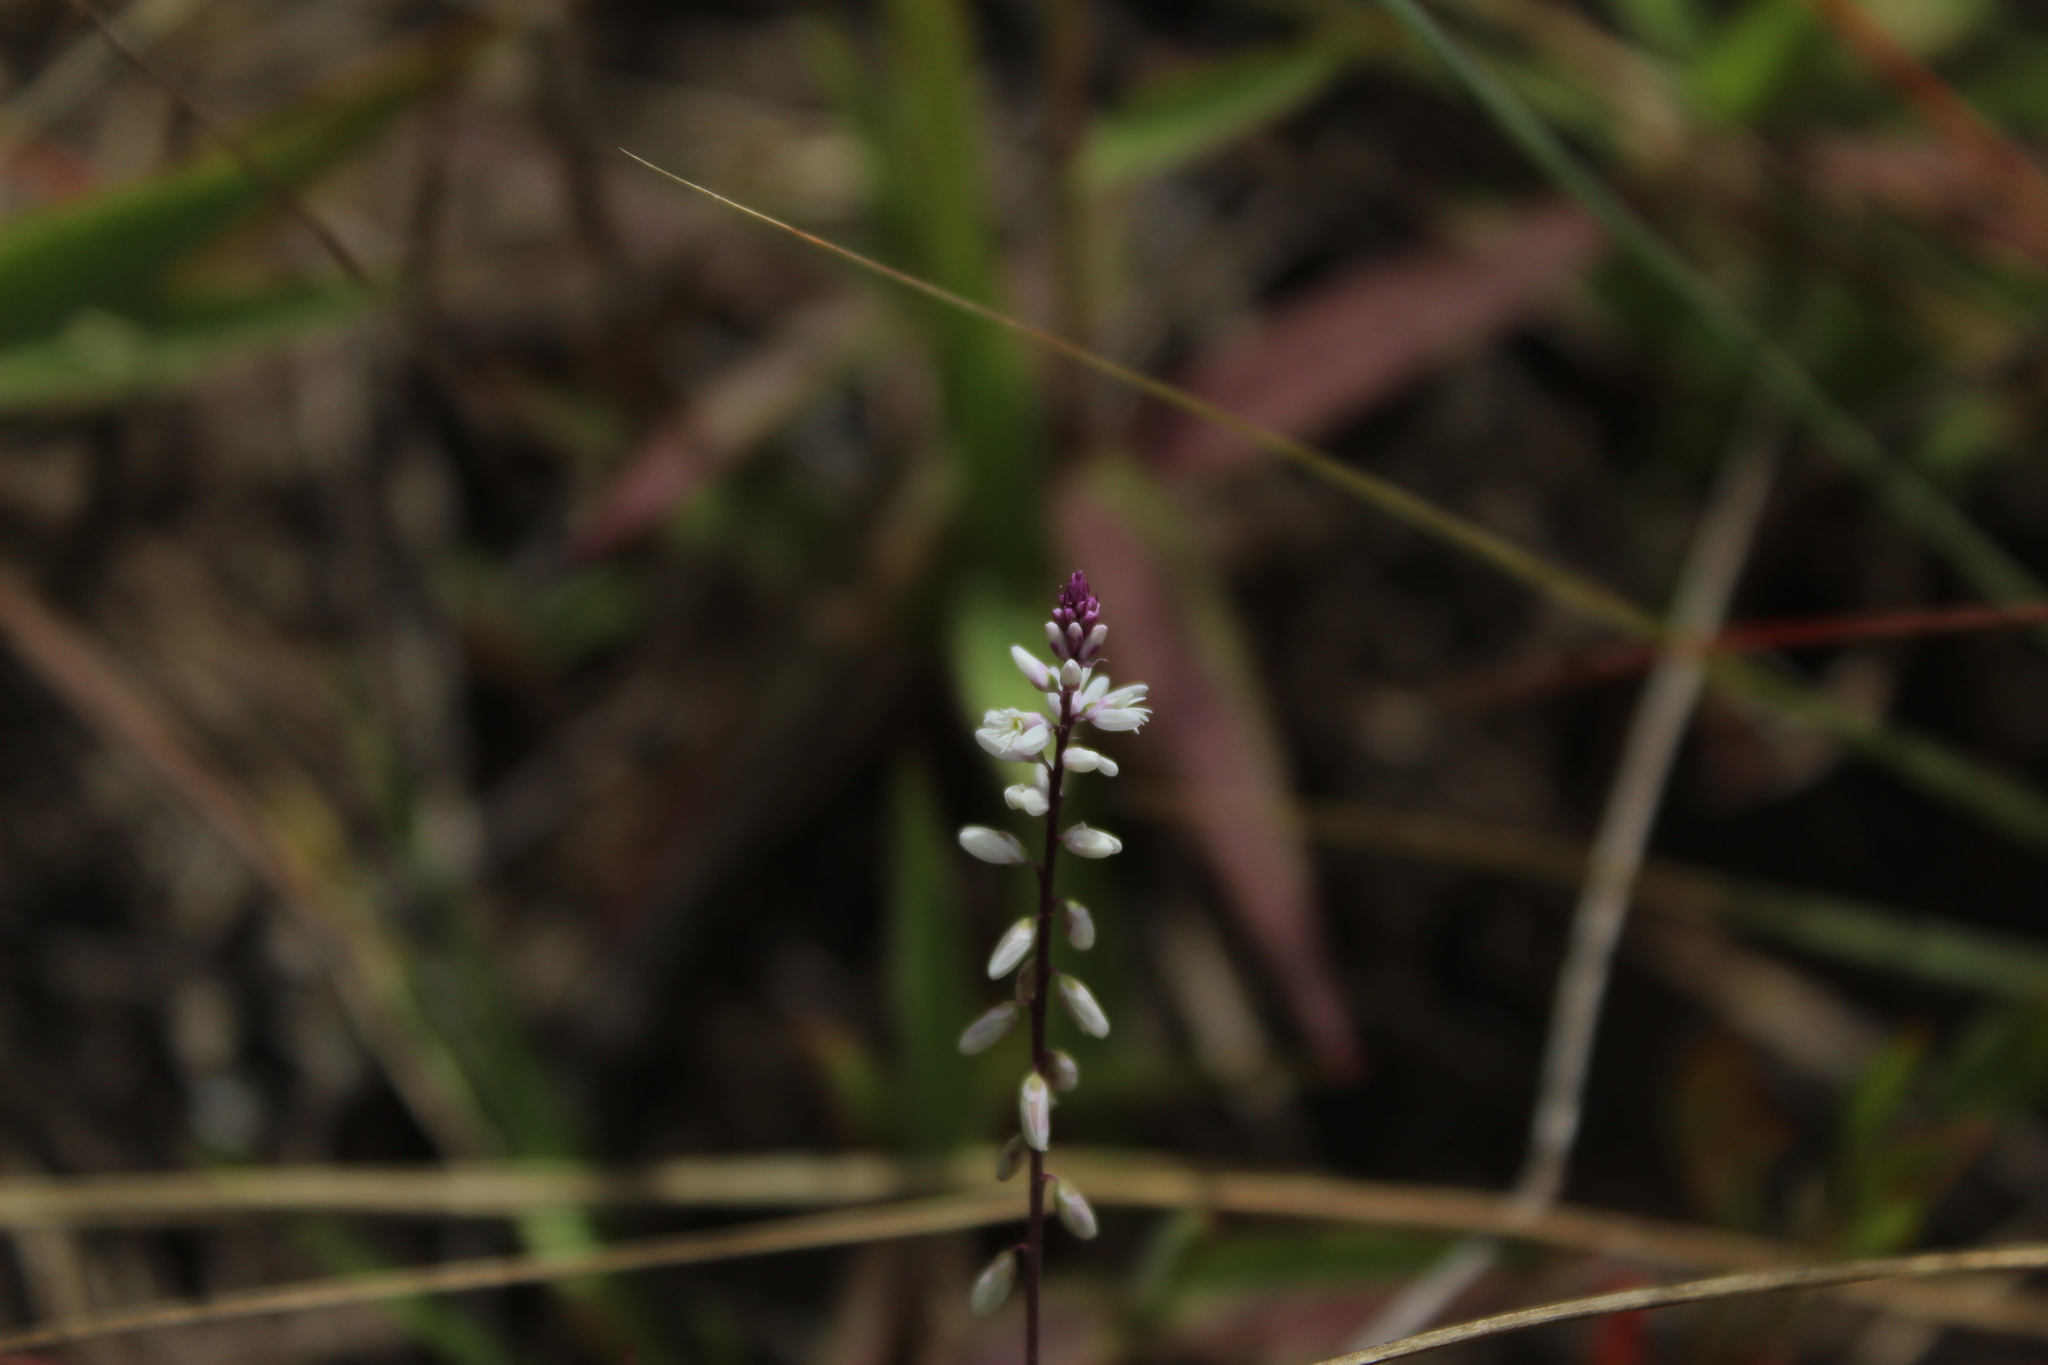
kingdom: Plantae
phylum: Tracheophyta
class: Magnoliopsida
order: Fabales
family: Polygalaceae
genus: Polygala
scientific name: Polygala paniculata
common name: Orosne
